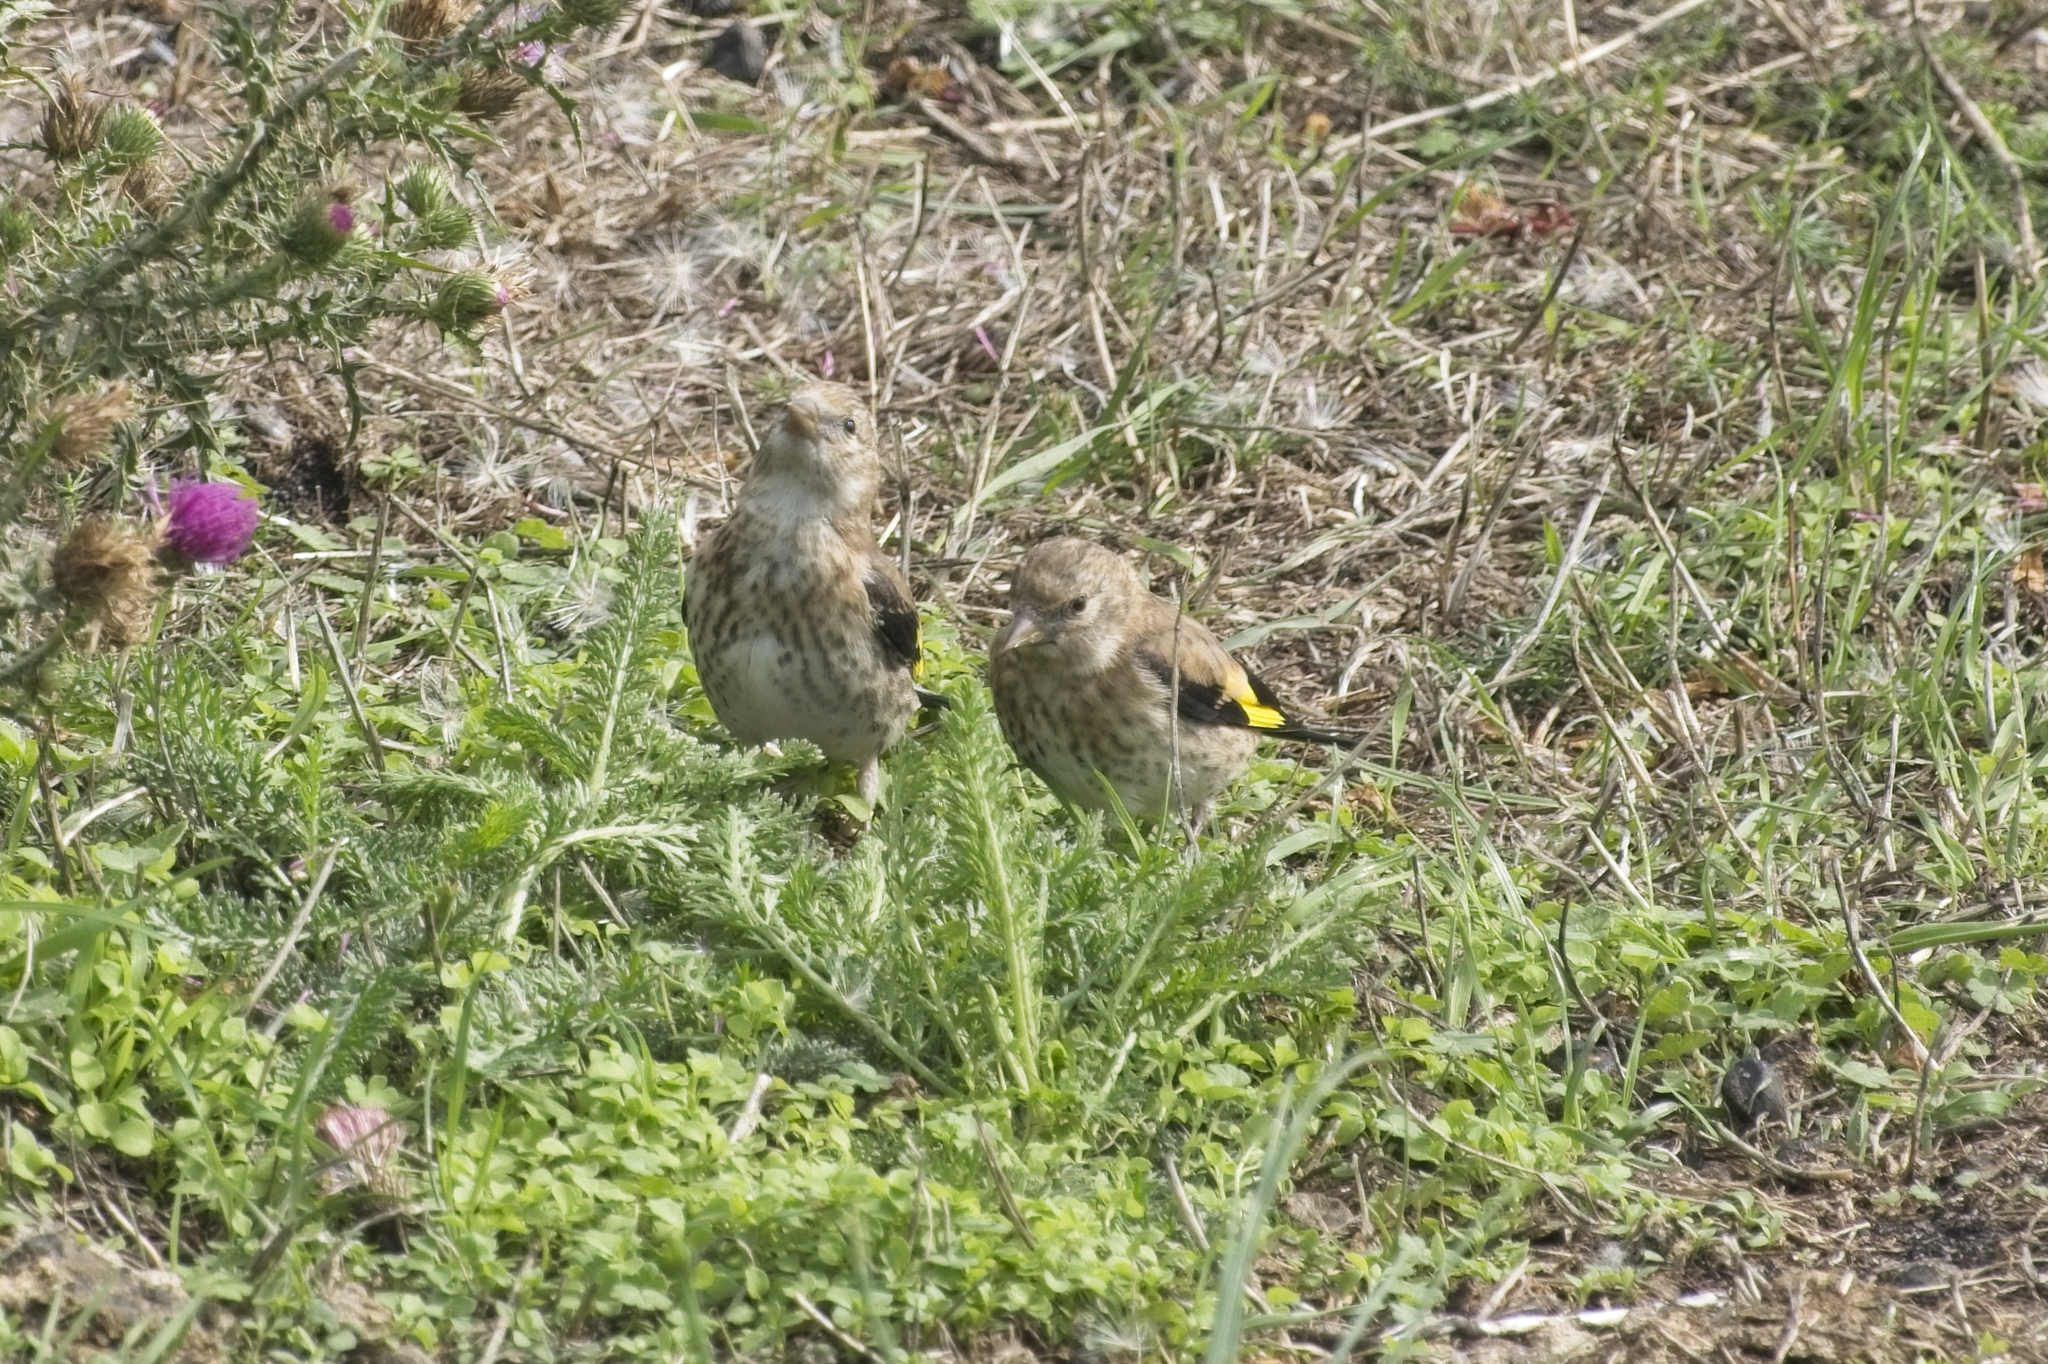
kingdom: Animalia
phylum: Chordata
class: Aves
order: Passeriformes
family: Fringillidae
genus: Carduelis
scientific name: Carduelis carduelis
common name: European goldfinch
